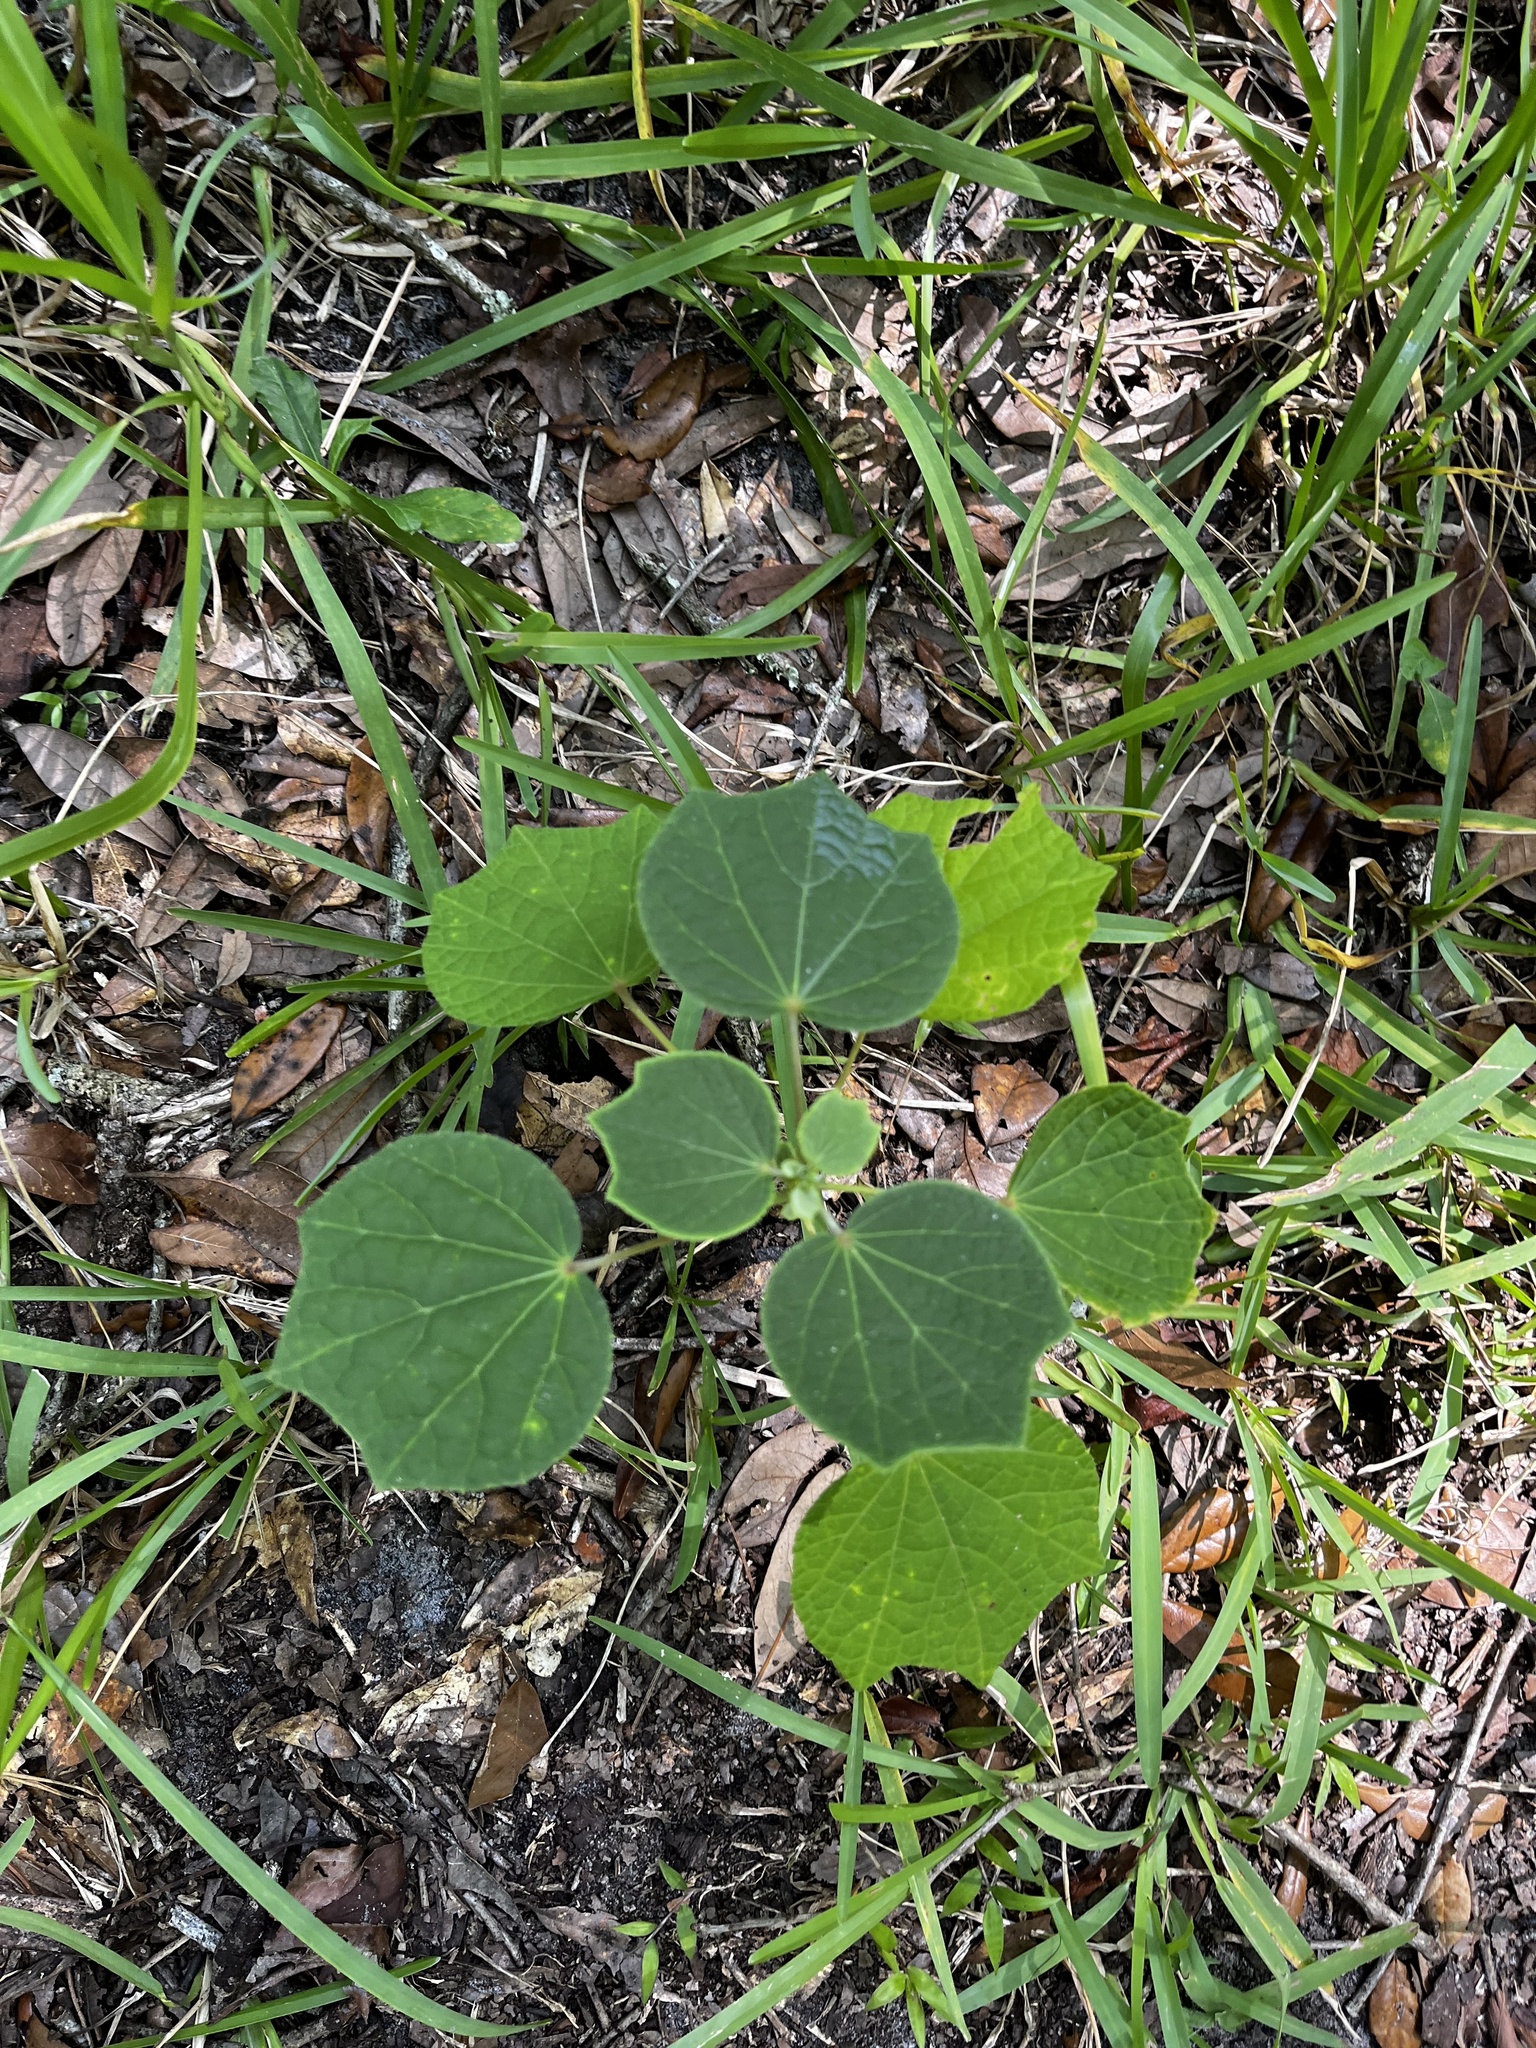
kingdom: Plantae
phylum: Tracheophyta
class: Magnoliopsida
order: Malvales
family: Malvaceae
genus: Urena
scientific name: Urena lobata
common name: Caesarweed
